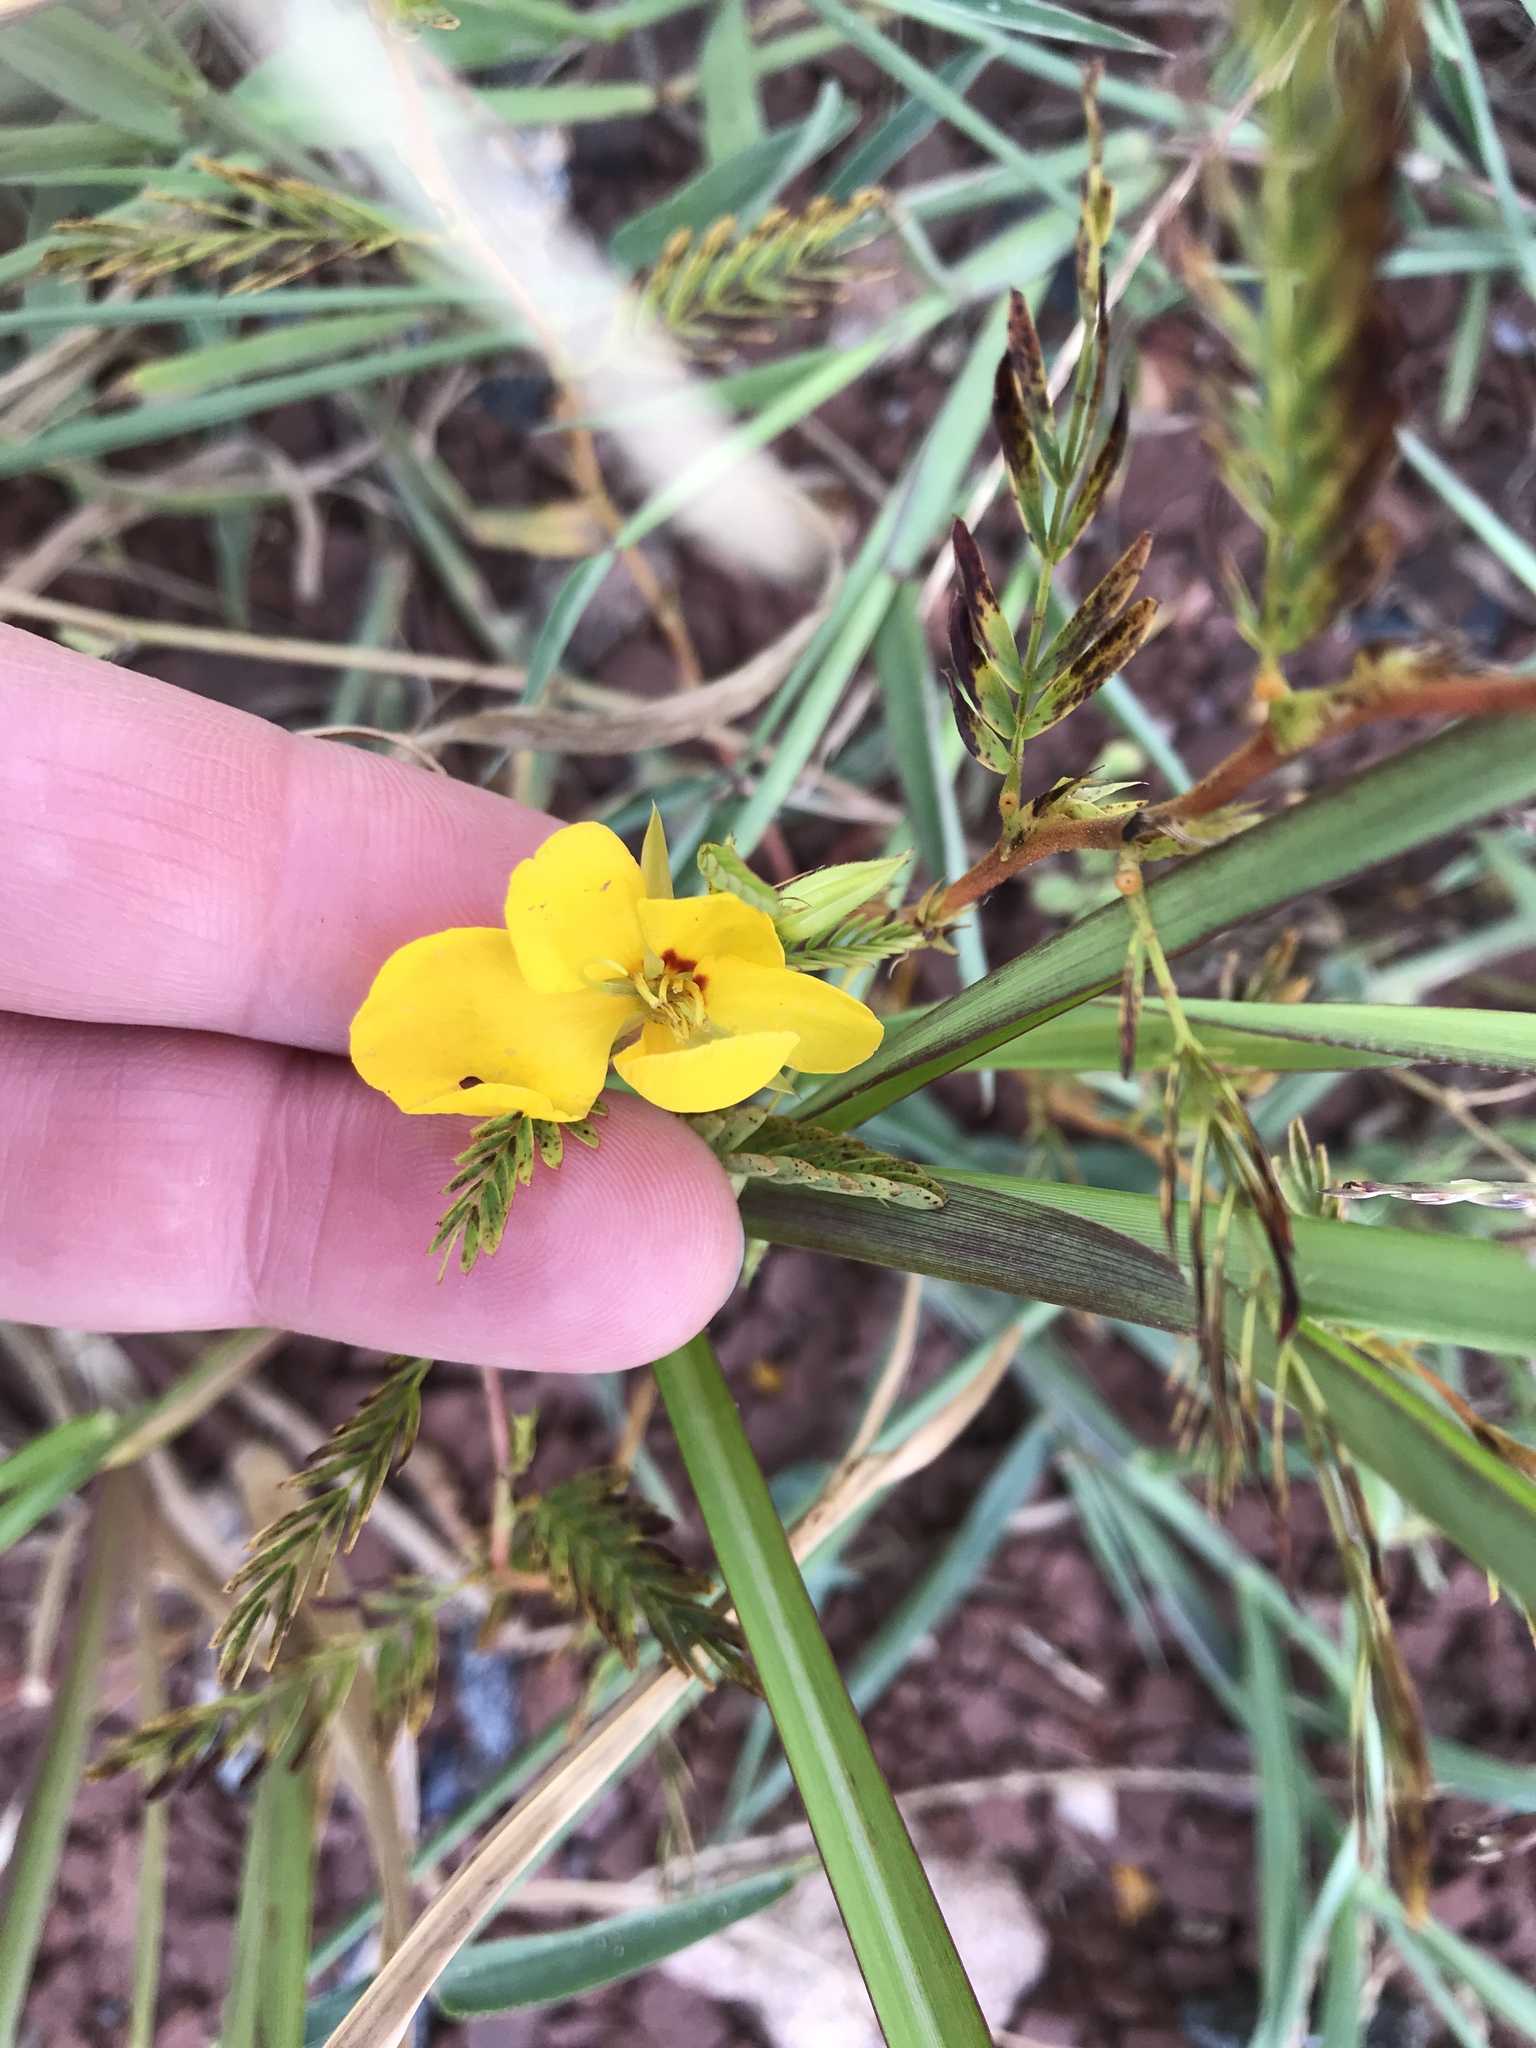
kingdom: Plantae
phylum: Tracheophyta
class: Magnoliopsida
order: Fabales
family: Fabaceae
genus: Chamaecrista
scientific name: Chamaecrista fasciculata
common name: Golden cassia
